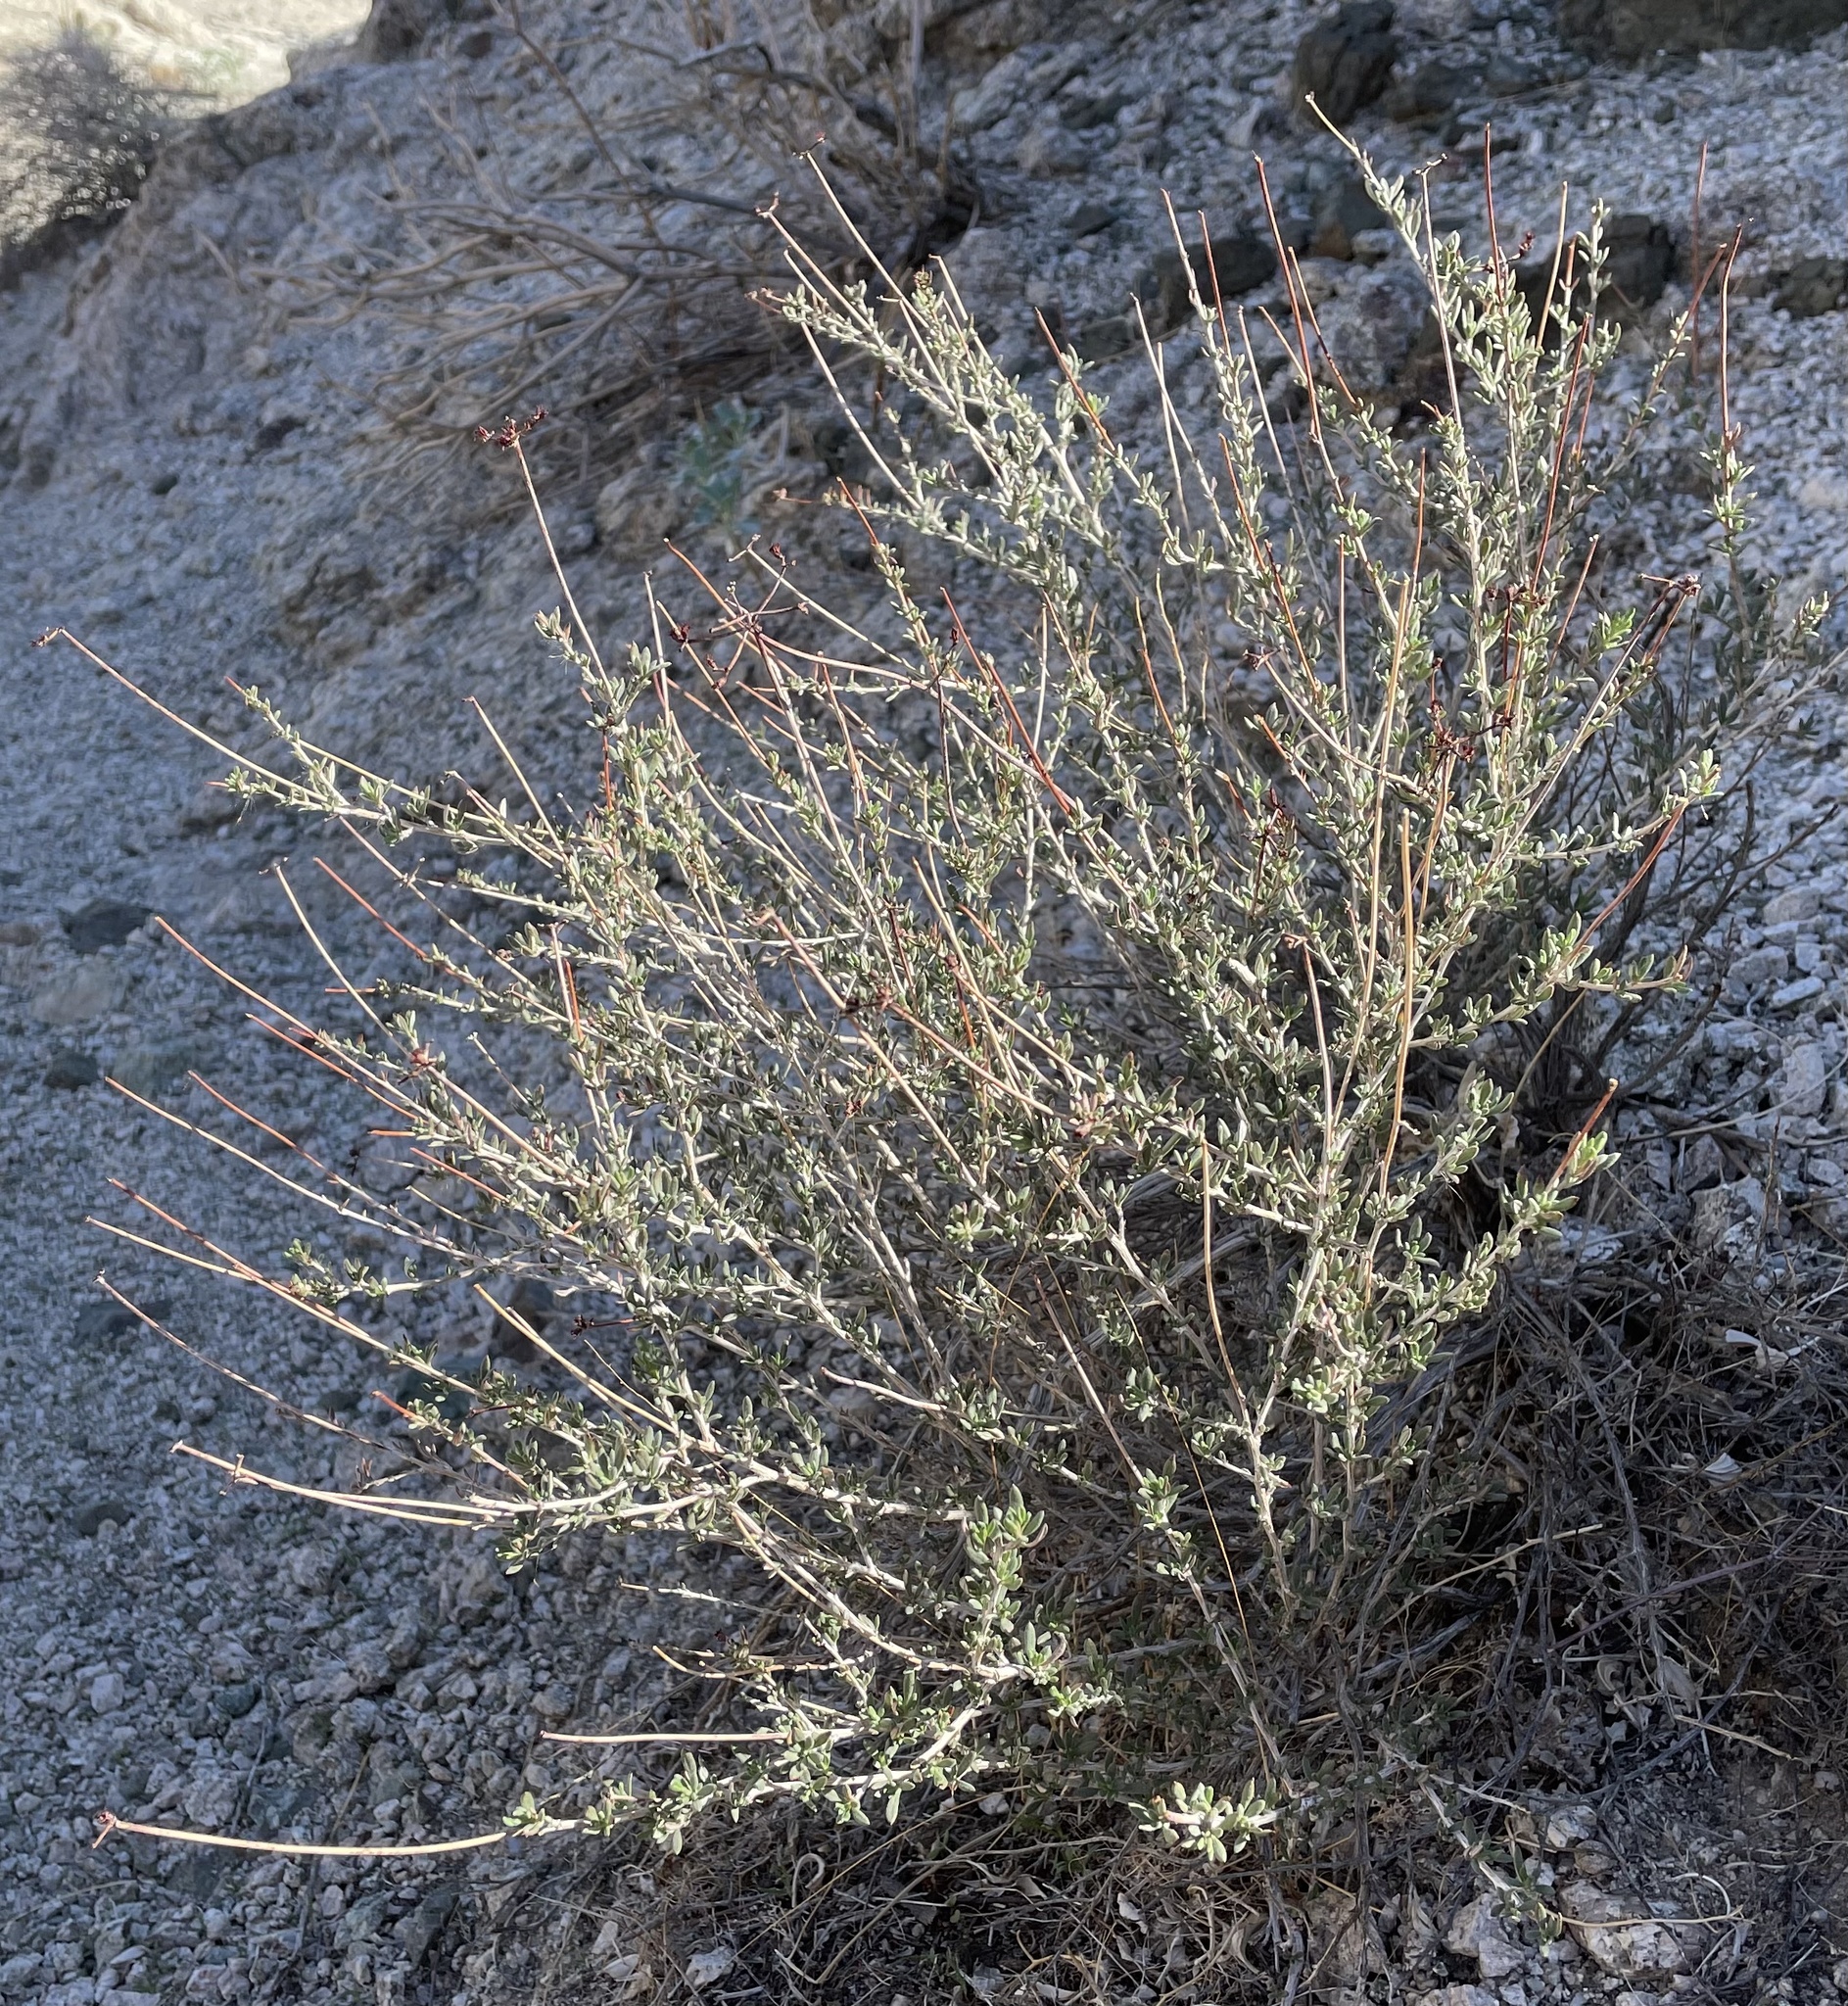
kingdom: Plantae
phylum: Tracheophyta
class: Magnoliopsida
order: Caryophyllales
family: Polygonaceae
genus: Eriogonum
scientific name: Eriogonum fasciculatum
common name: California wild buckwheat
